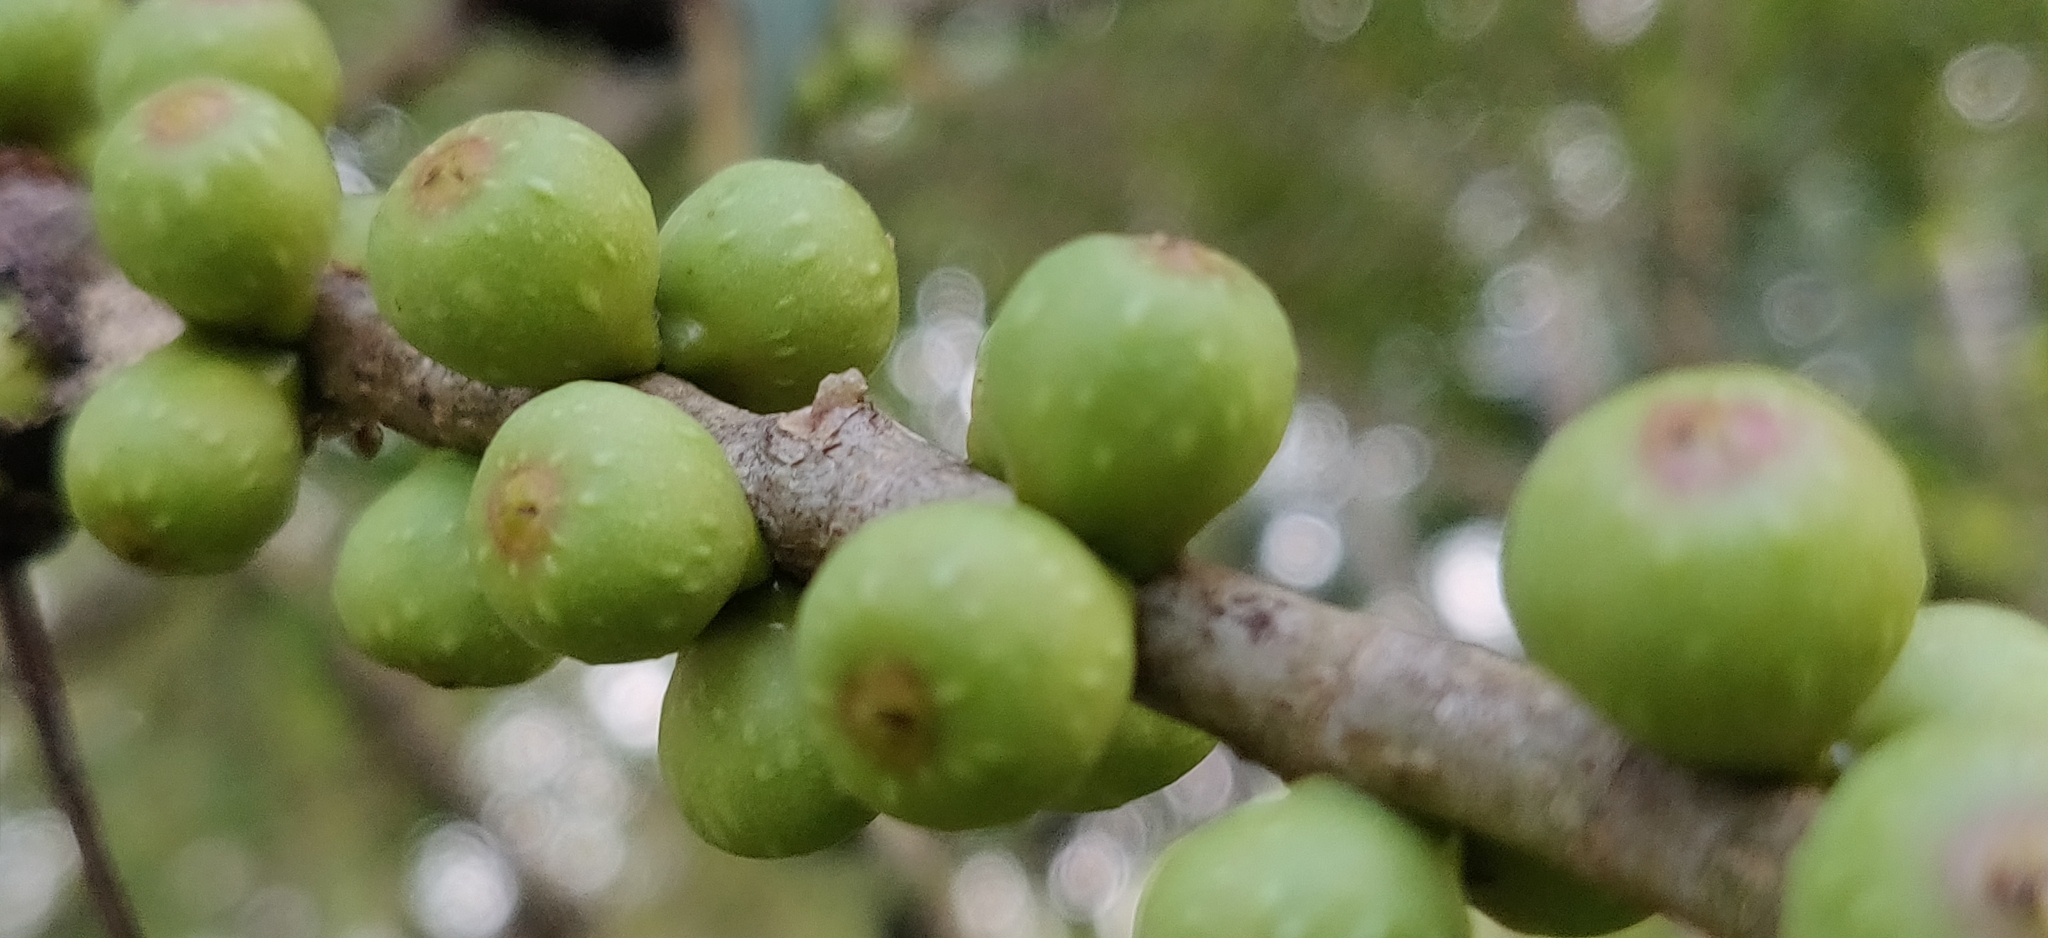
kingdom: Plantae
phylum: Tracheophyta
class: Magnoliopsida
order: Rosales
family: Moraceae
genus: Ficus
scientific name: Ficus rumphii
